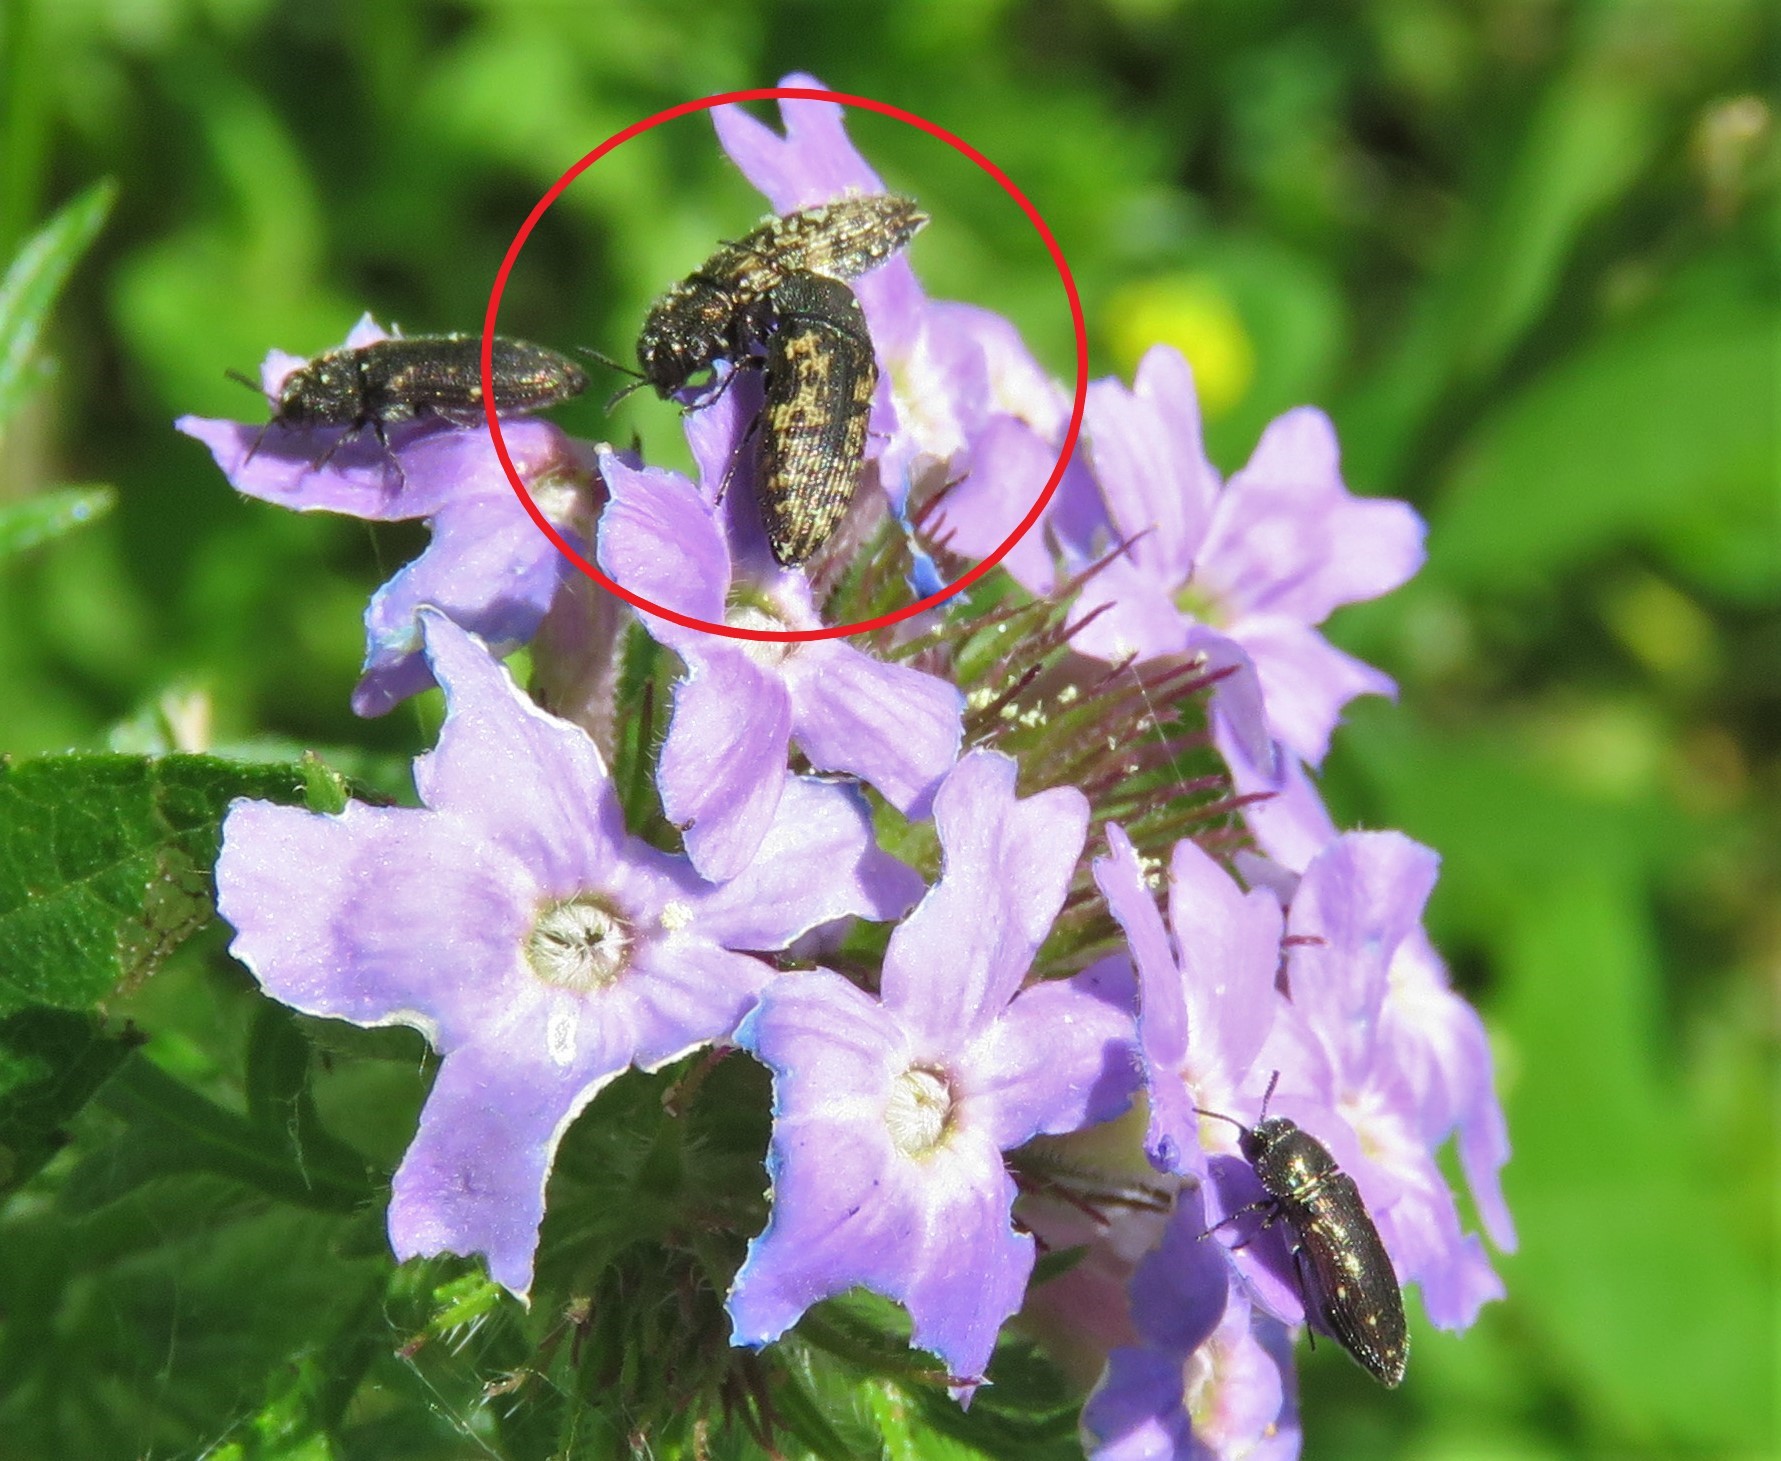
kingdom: Animalia
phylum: Arthropoda
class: Insecta
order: Coleoptera
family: Buprestidae
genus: Acmaeodera
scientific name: Acmaeodera neglecta
